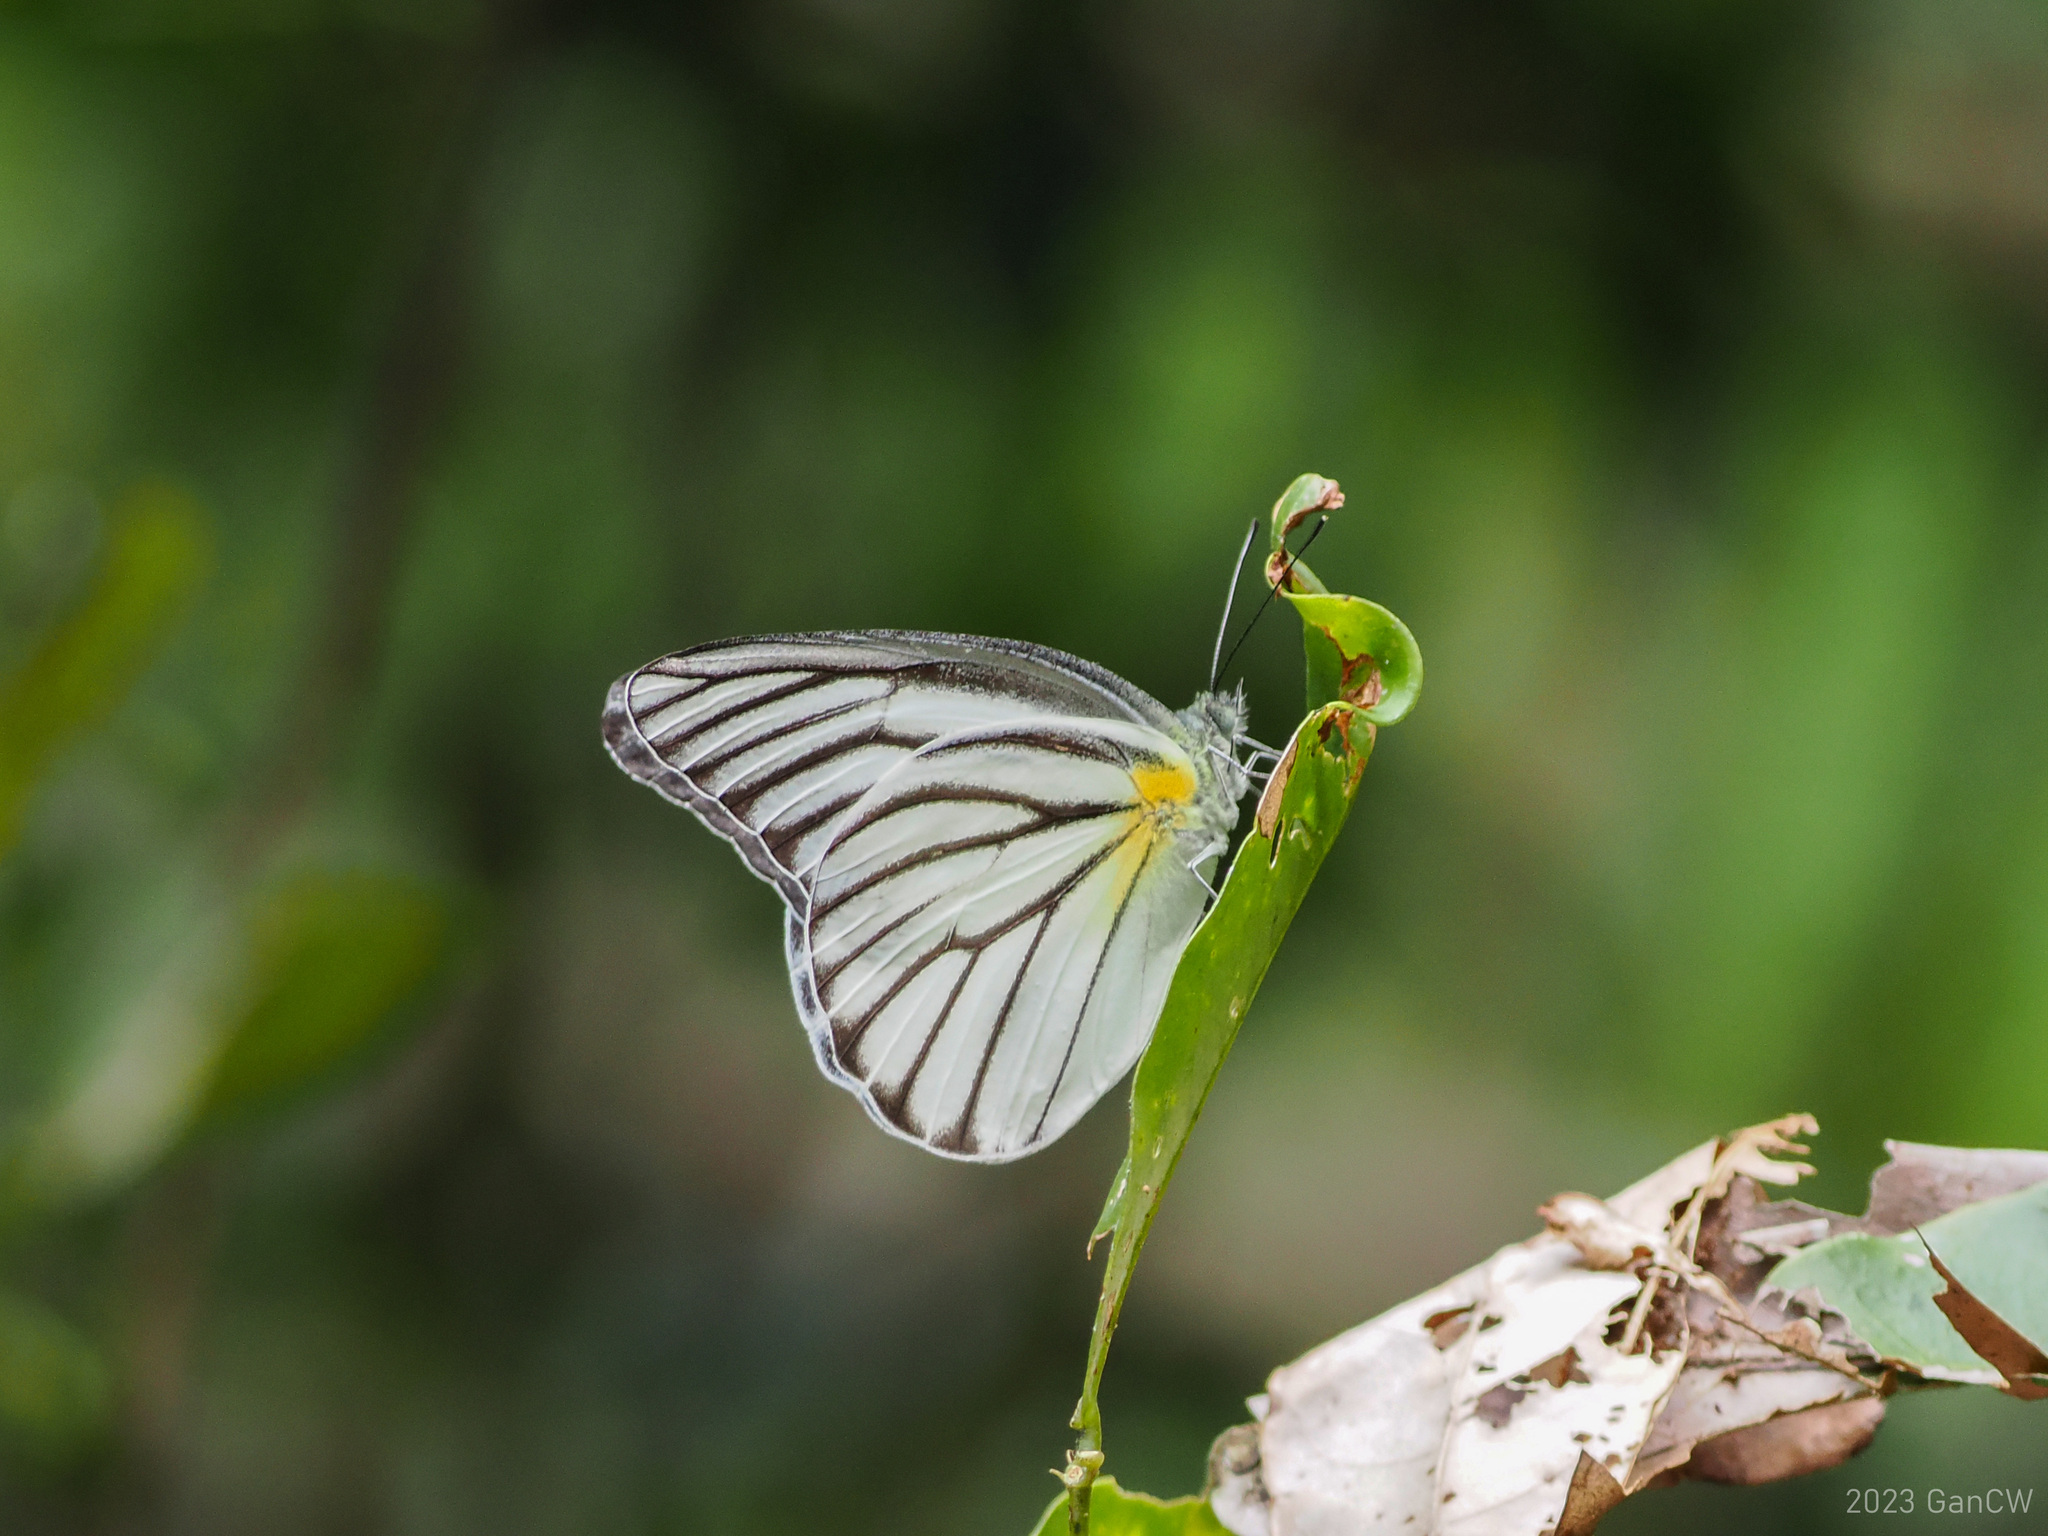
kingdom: Animalia
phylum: Arthropoda
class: Insecta
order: Lepidoptera
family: Pieridae
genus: Appias
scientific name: Appias hombroni
